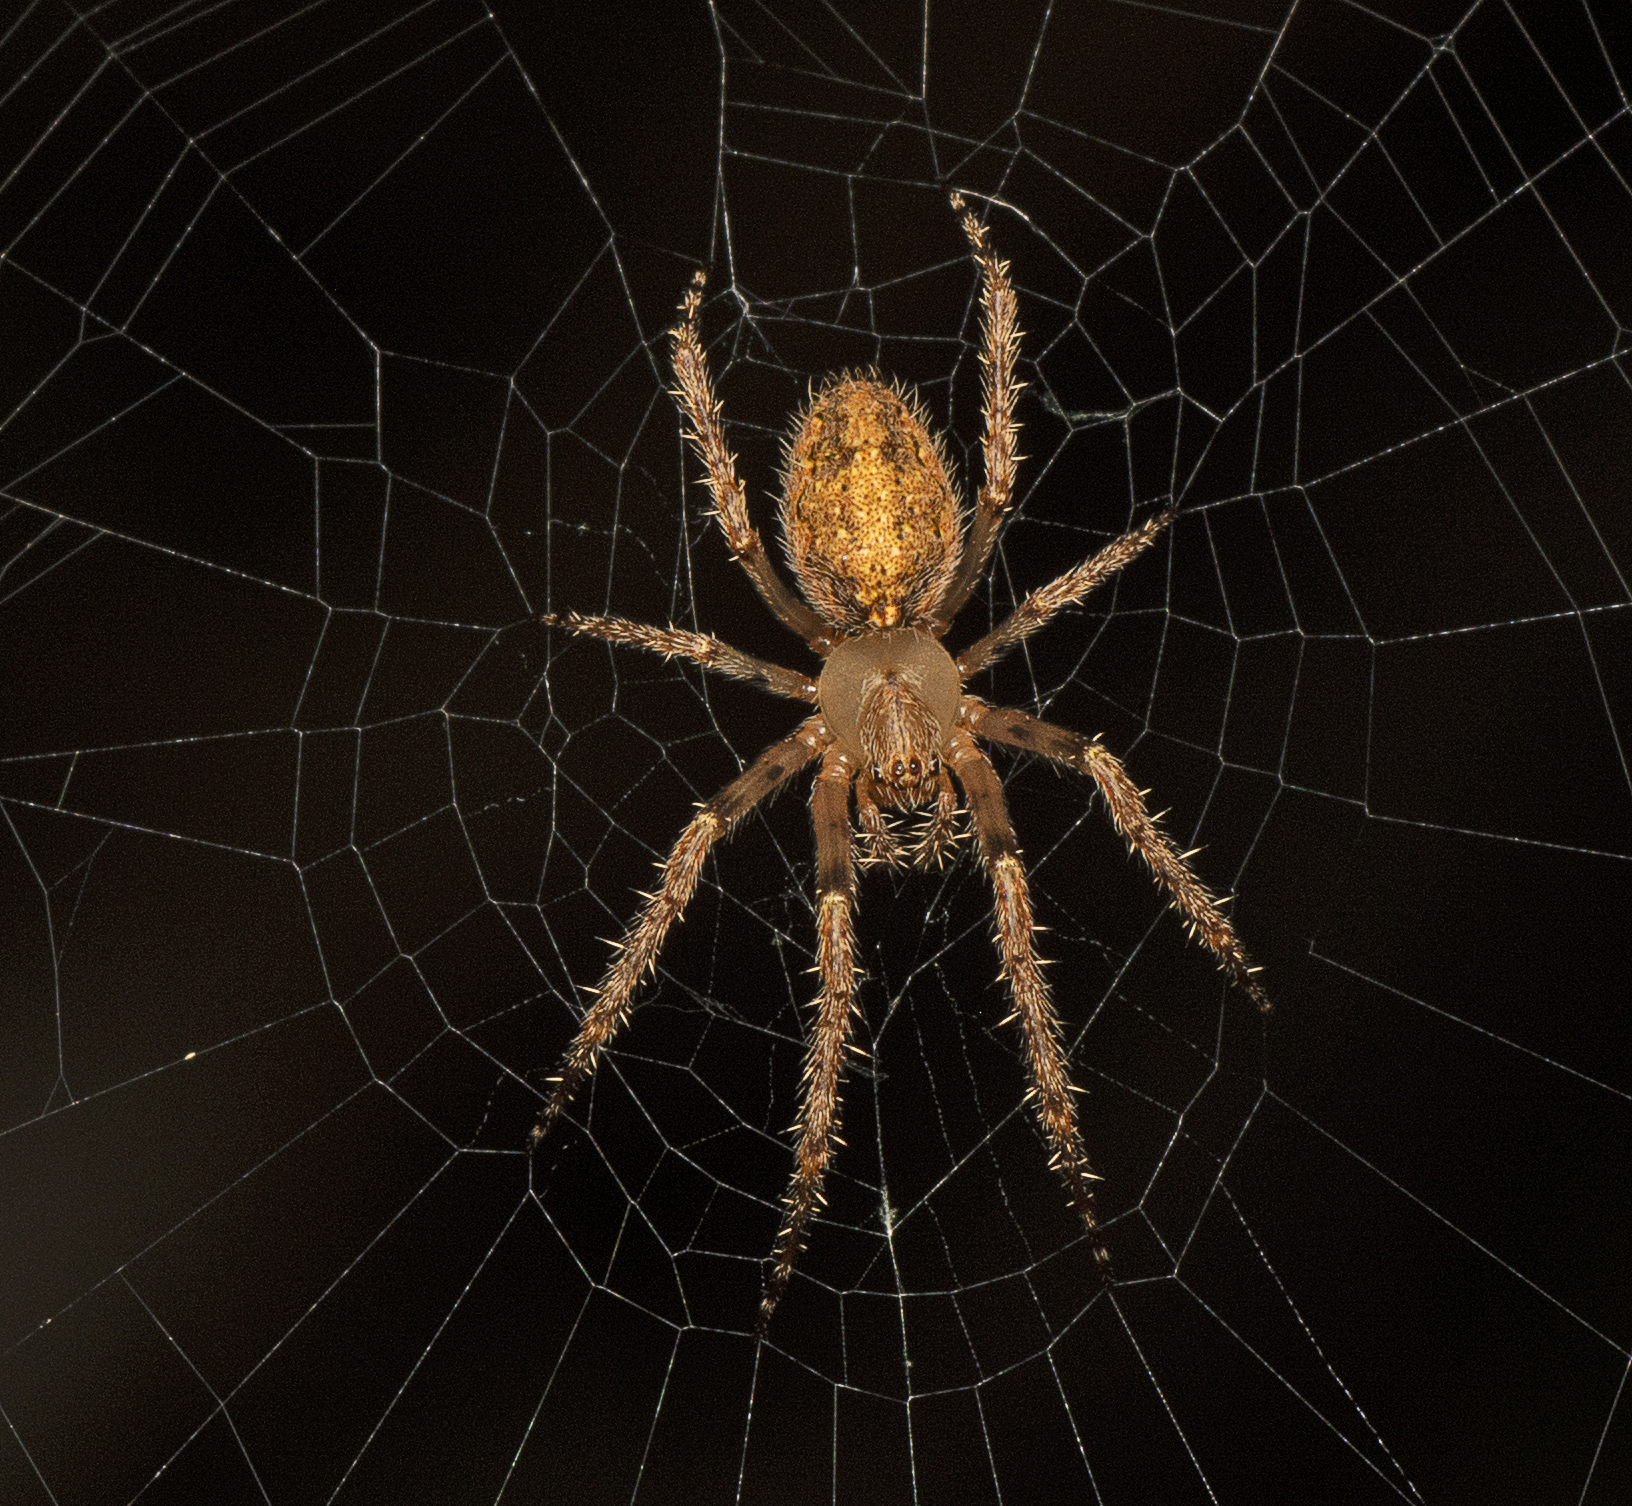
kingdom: Animalia
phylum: Arthropoda
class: Arachnida
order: Araneae
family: Araneidae
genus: Araneus
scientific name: Araneus stolidus
